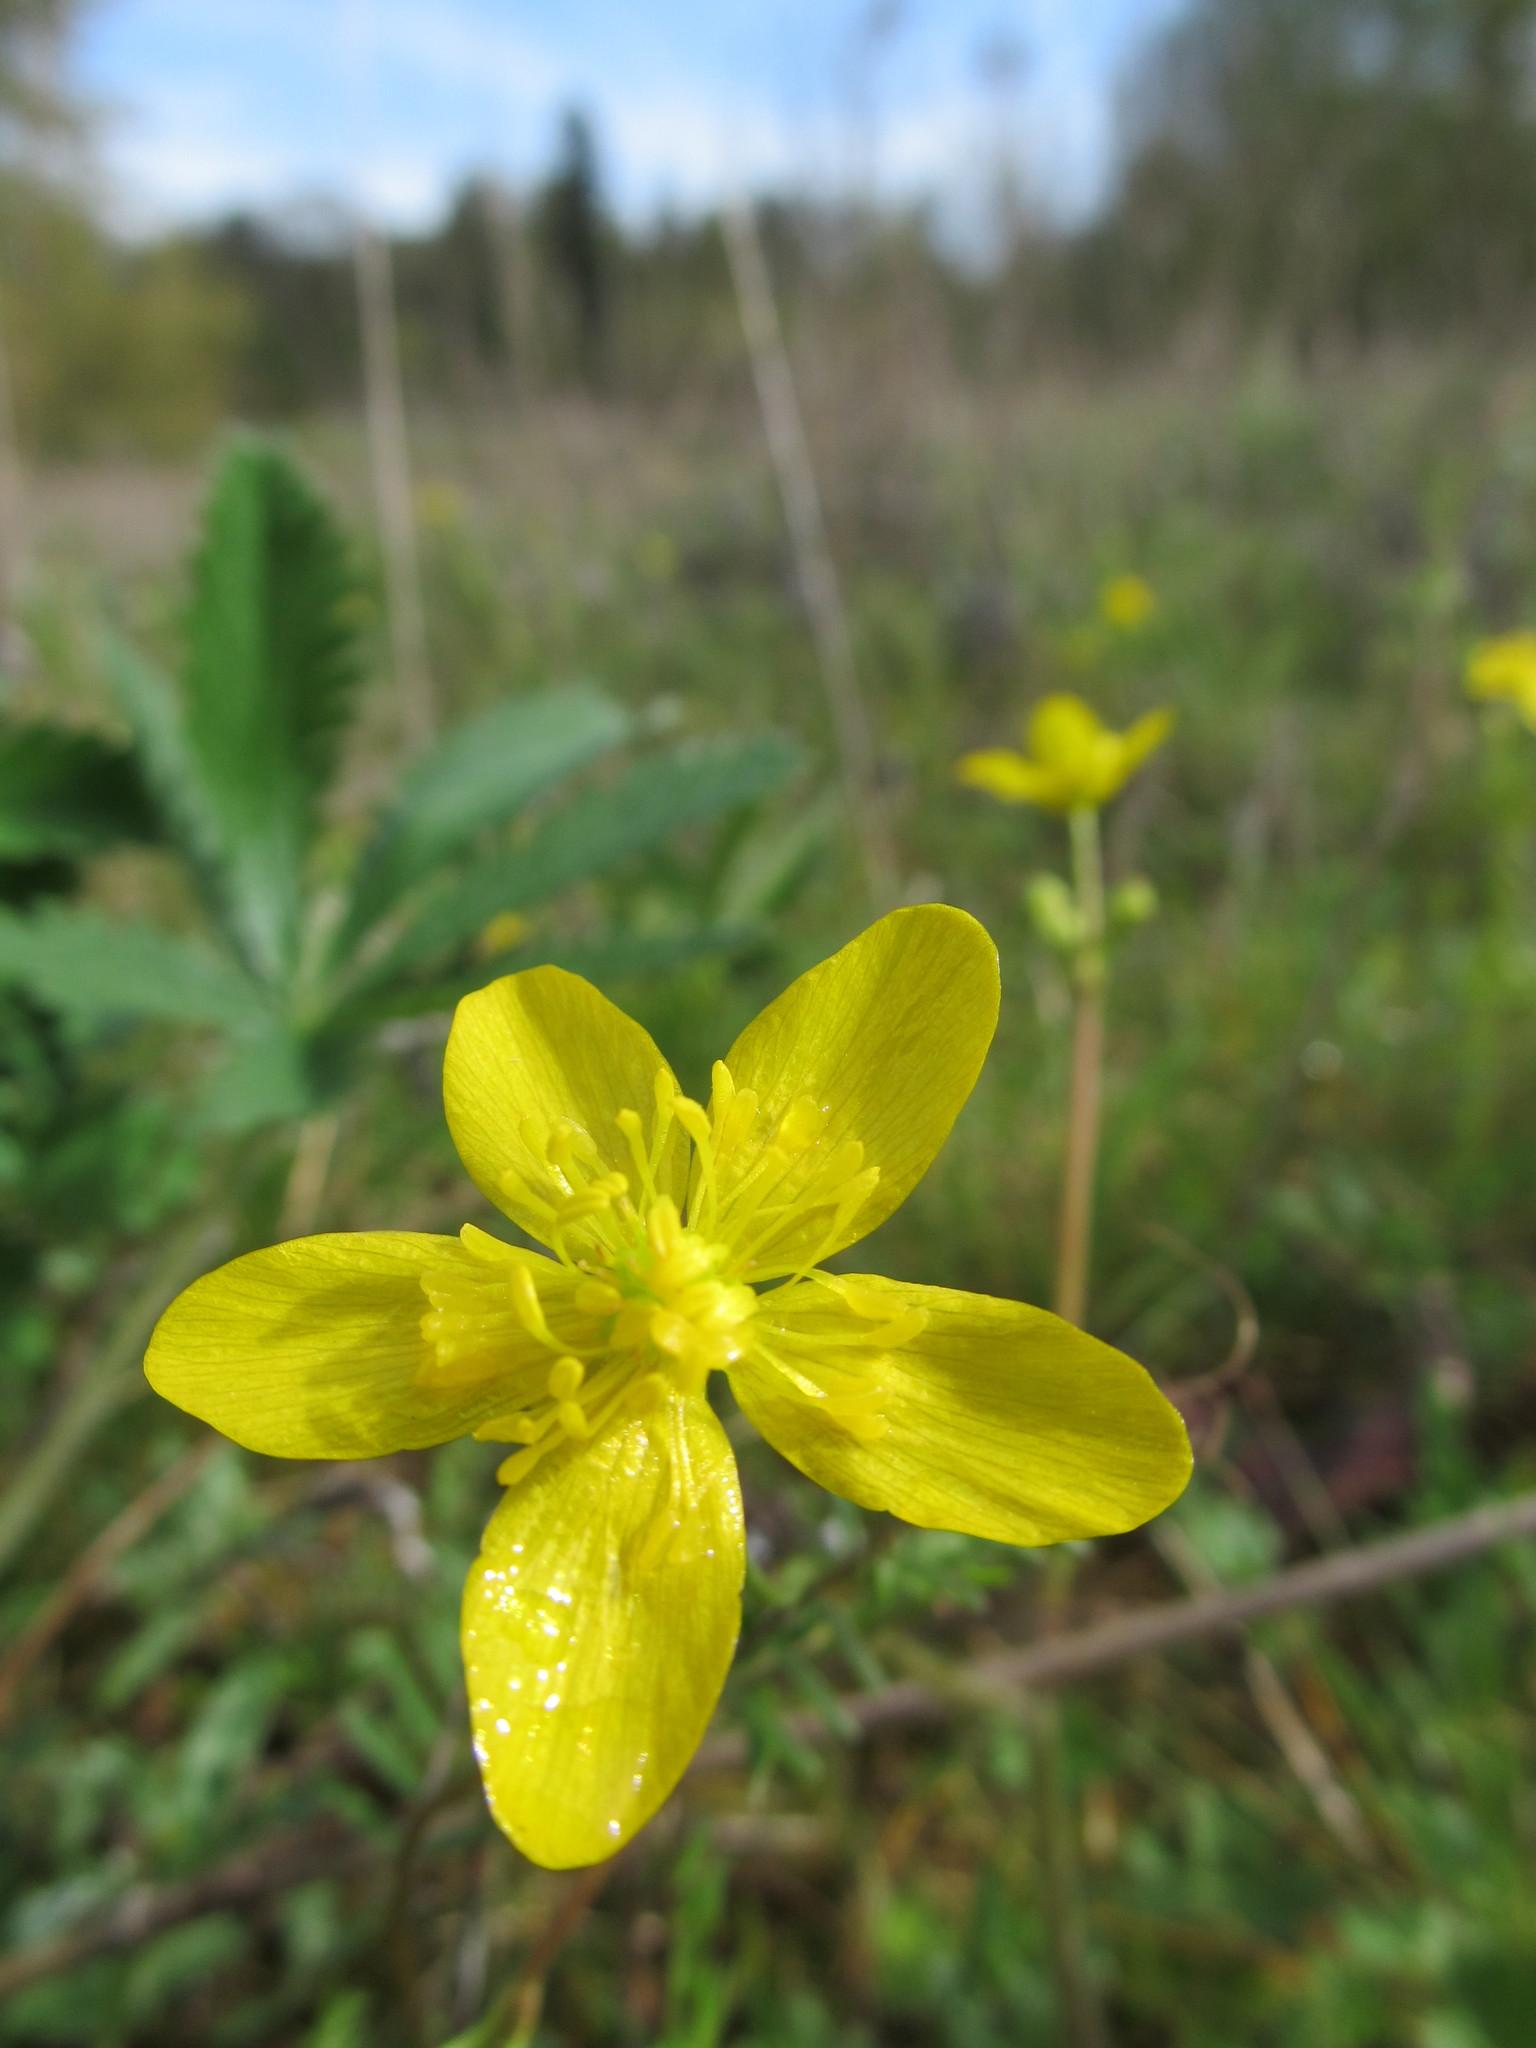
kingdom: Plantae
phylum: Tracheophyta
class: Magnoliopsida
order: Ranunculales
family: Ranunculaceae
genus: Ranunculus
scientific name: Ranunculus occidentalis
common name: Western buttercup
